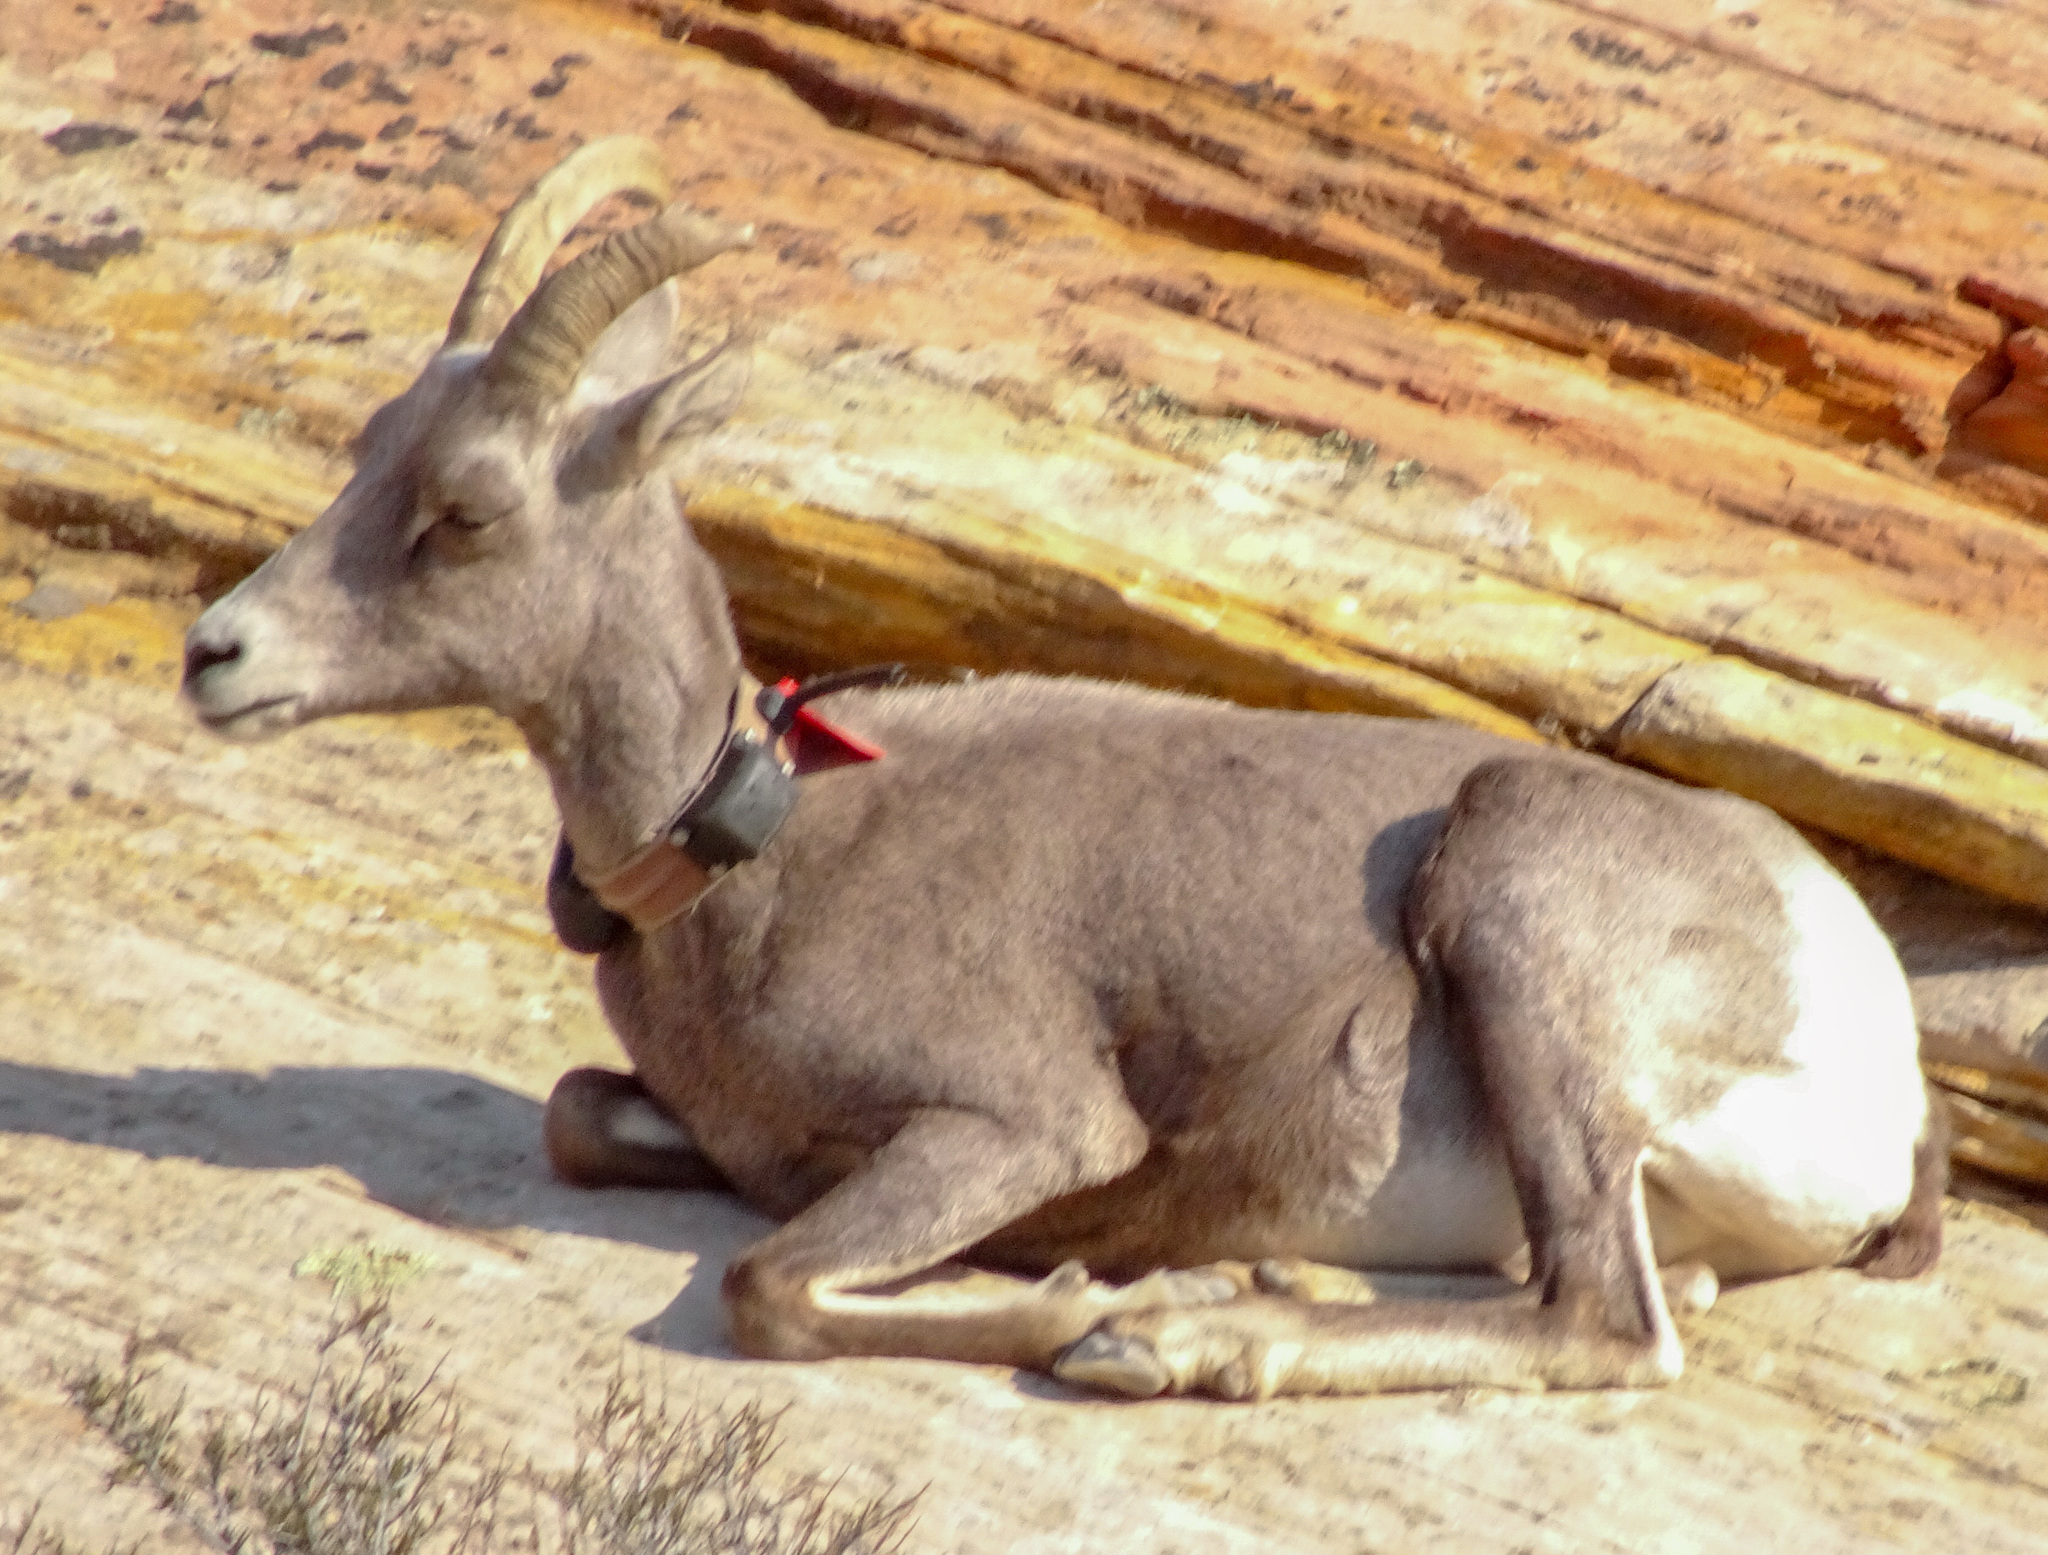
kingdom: Animalia
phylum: Chordata
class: Mammalia
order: Artiodactyla
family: Bovidae
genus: Ovis
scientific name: Ovis canadensis
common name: Bighorn sheep
